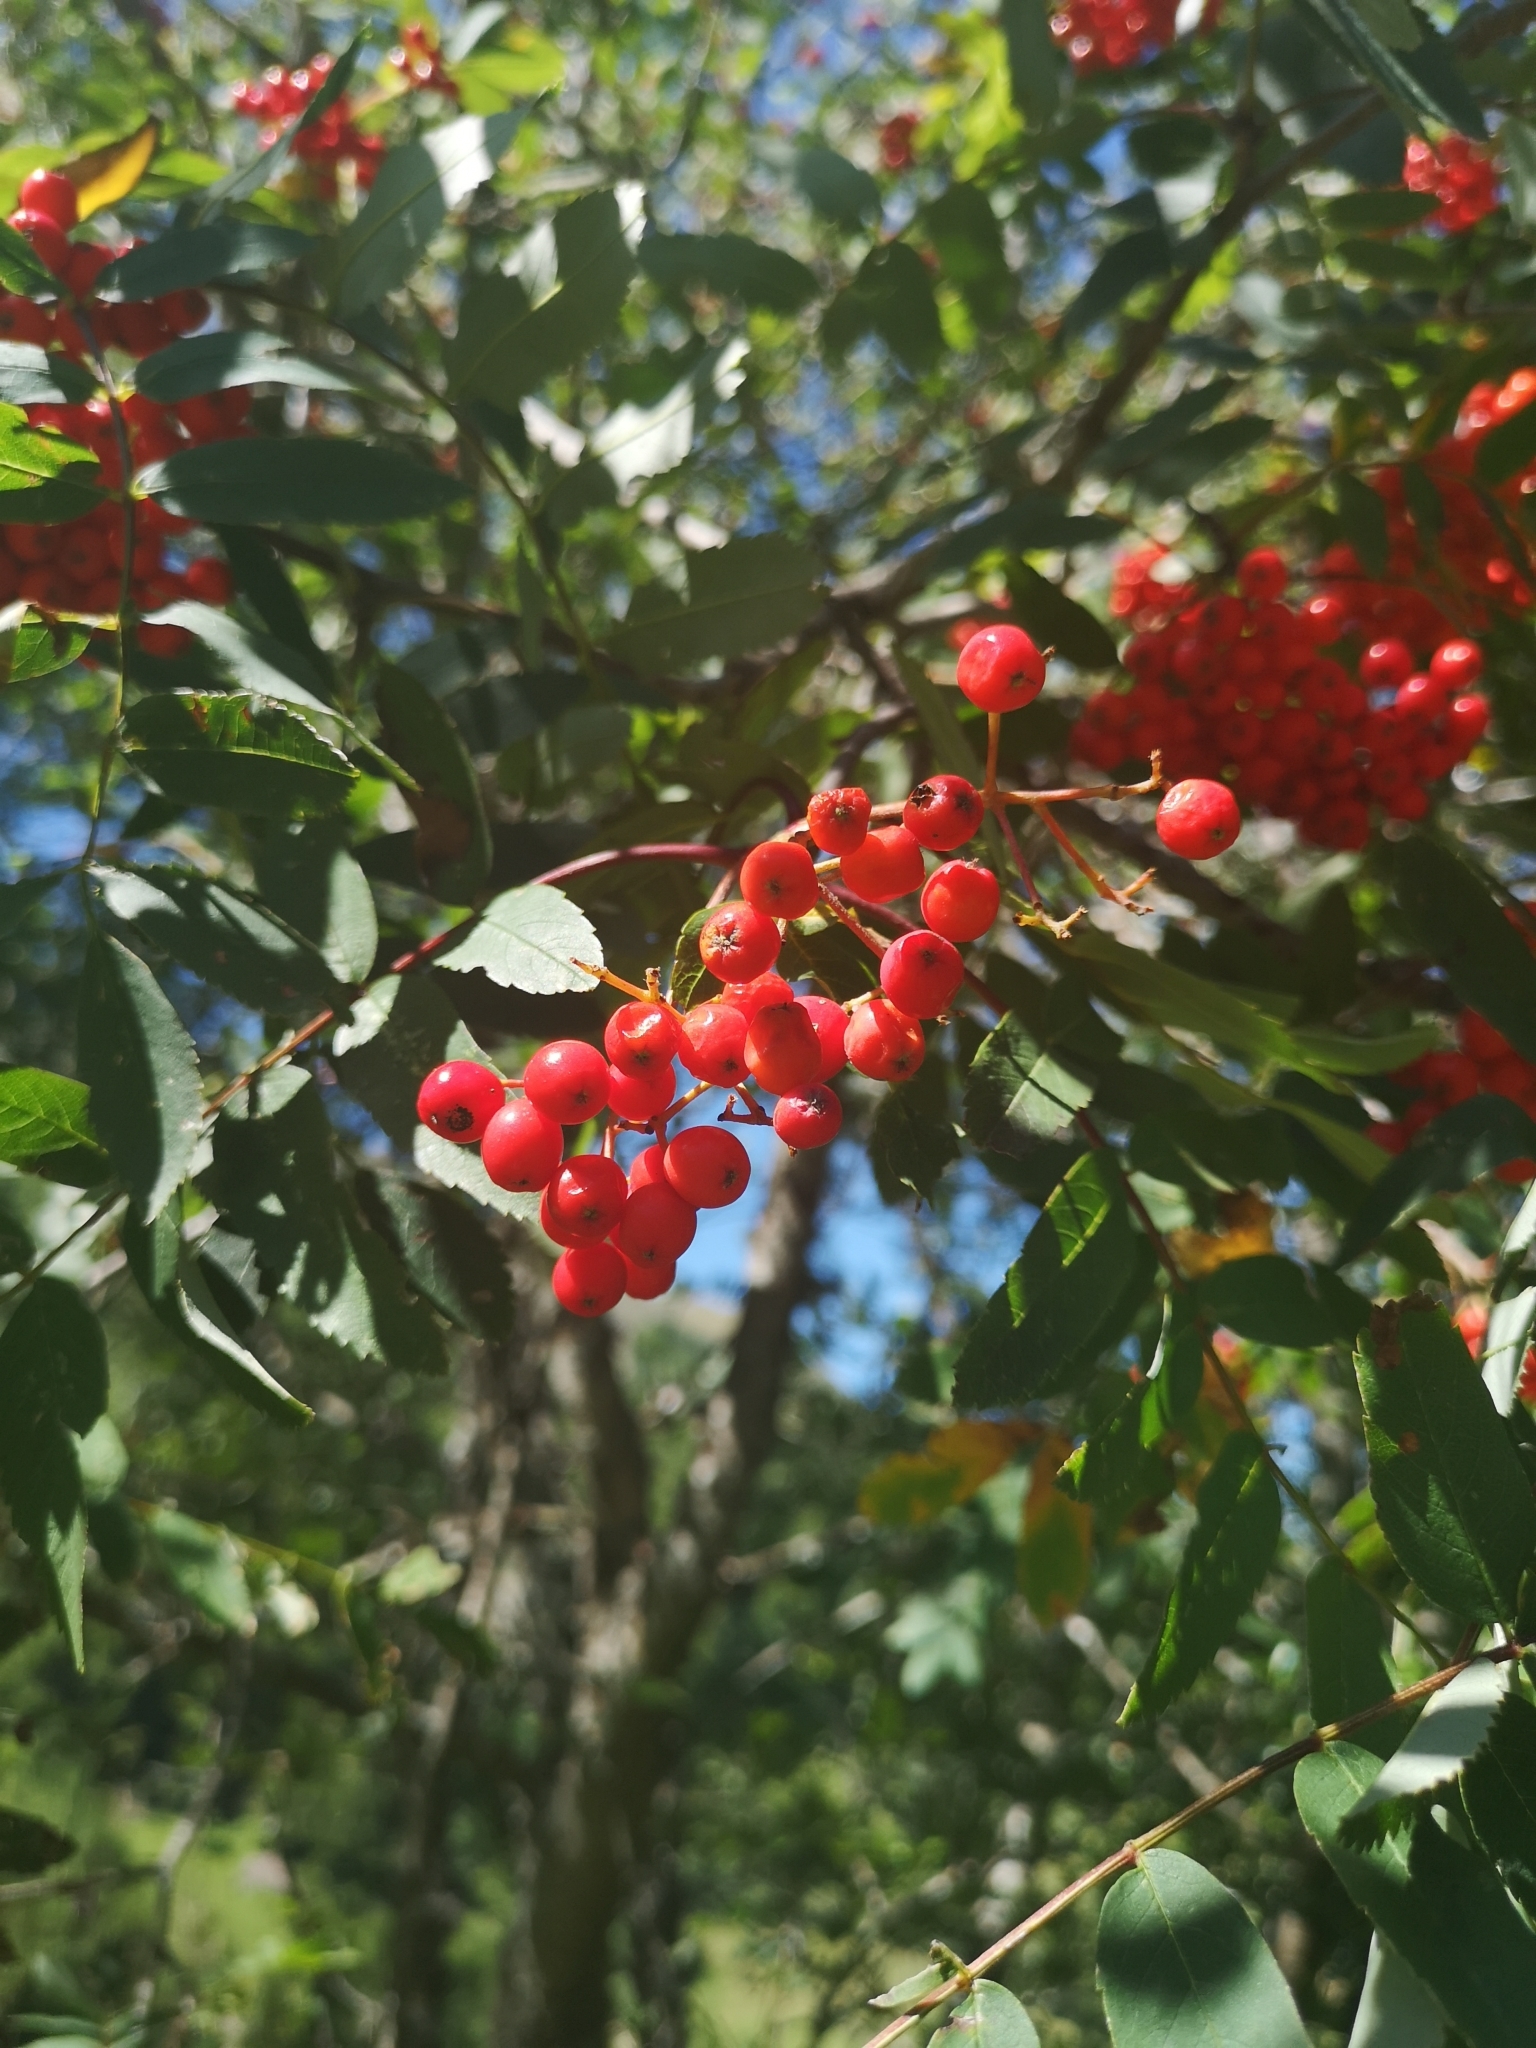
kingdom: Plantae
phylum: Tracheophyta
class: Magnoliopsida
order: Rosales
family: Rosaceae
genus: Sorbus
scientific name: Sorbus aucuparia
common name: Rowan
